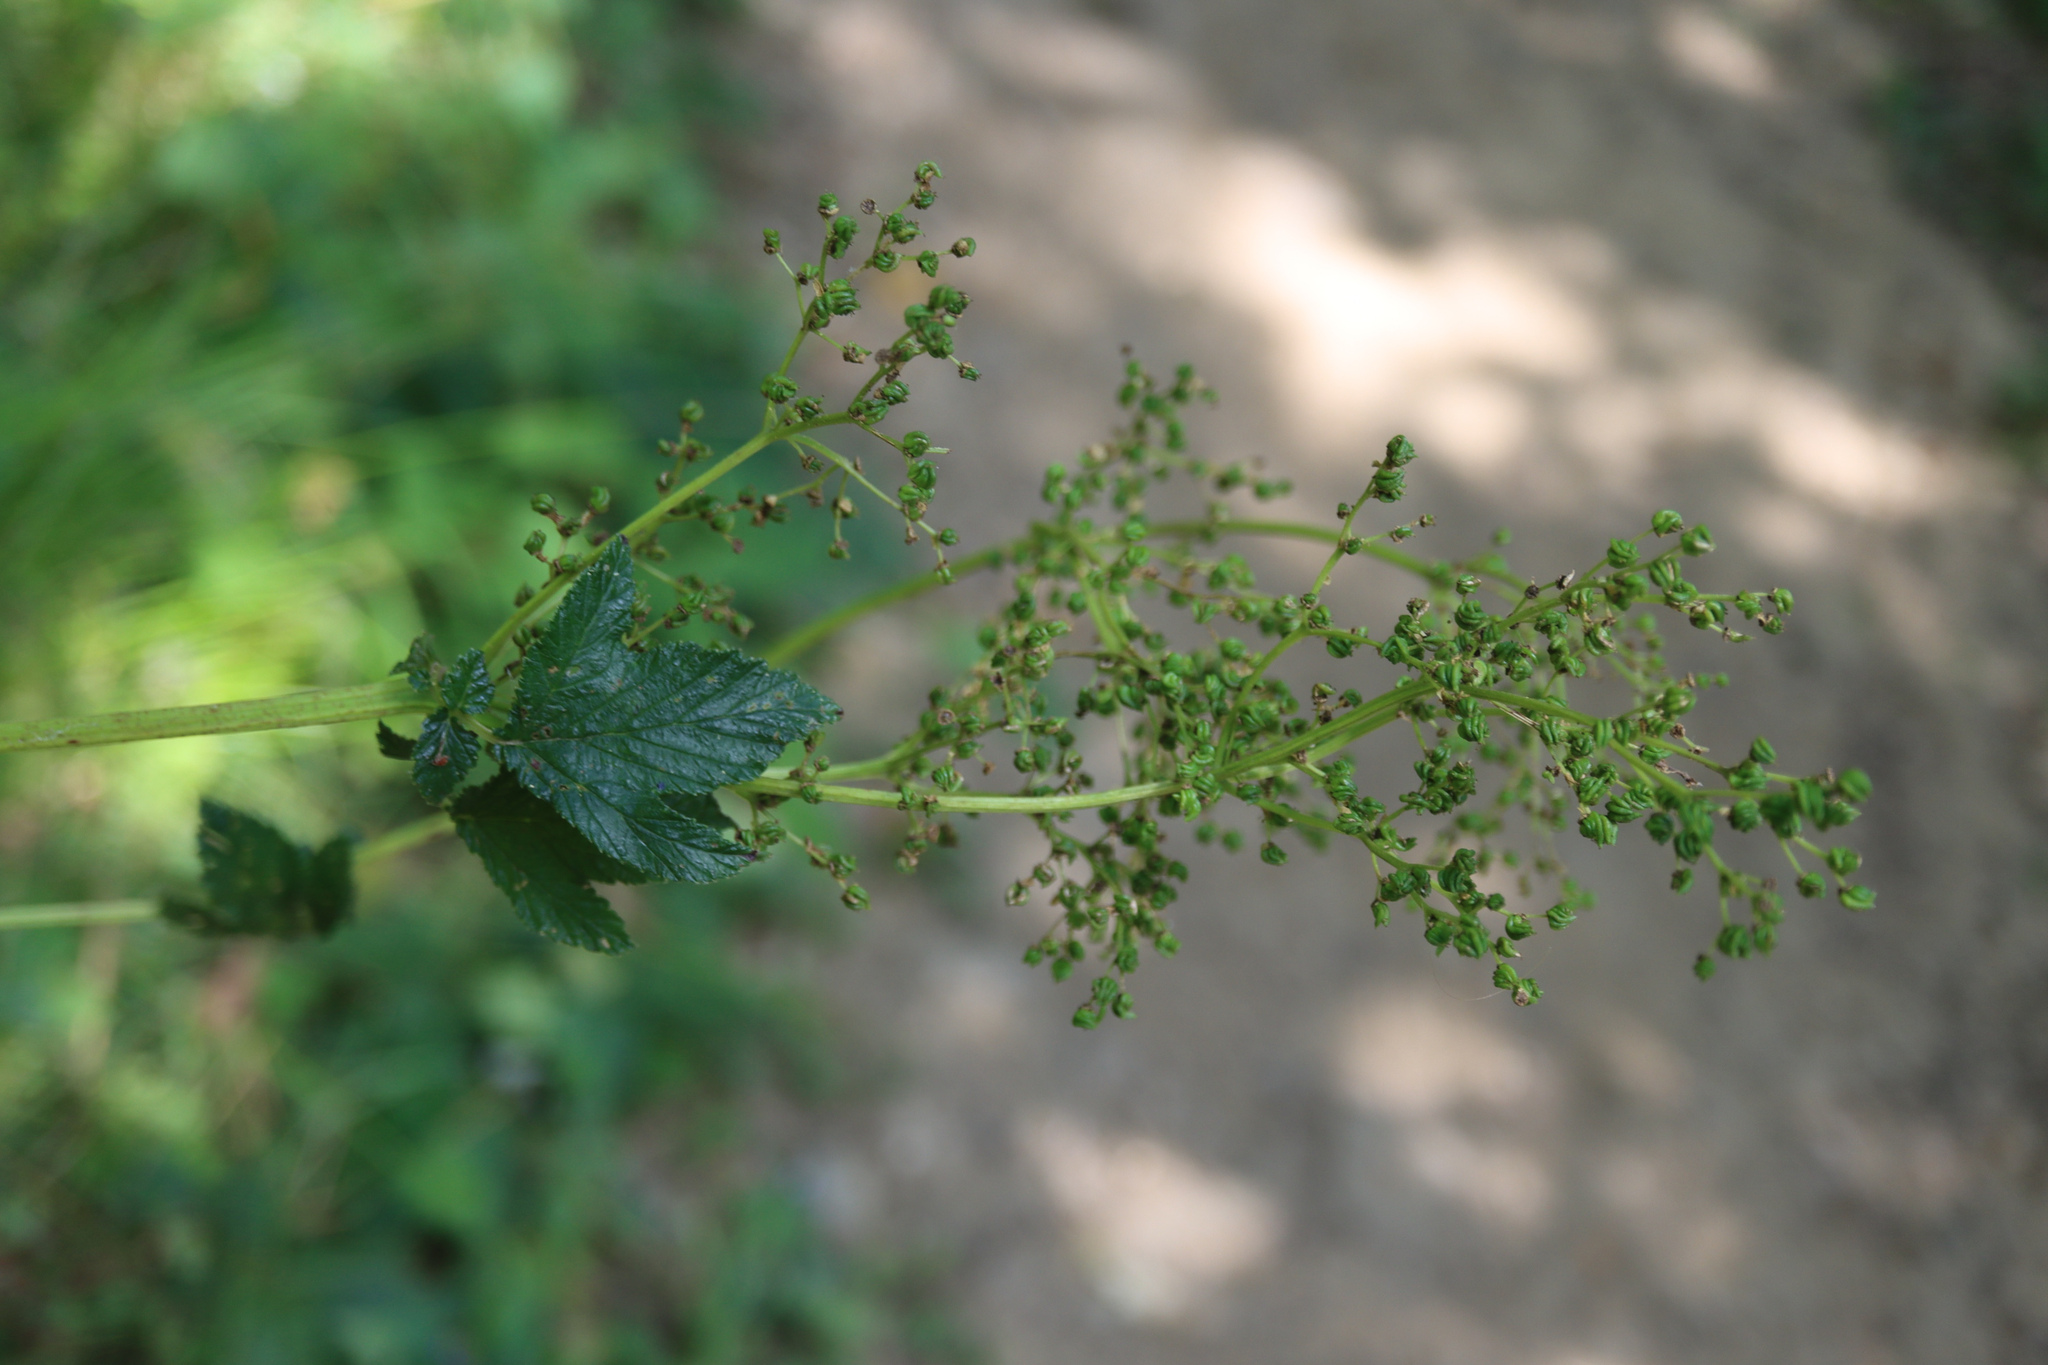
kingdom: Plantae
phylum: Tracheophyta
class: Magnoliopsida
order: Rosales
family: Rosaceae
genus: Filipendula
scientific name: Filipendula ulmaria
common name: Meadowsweet
